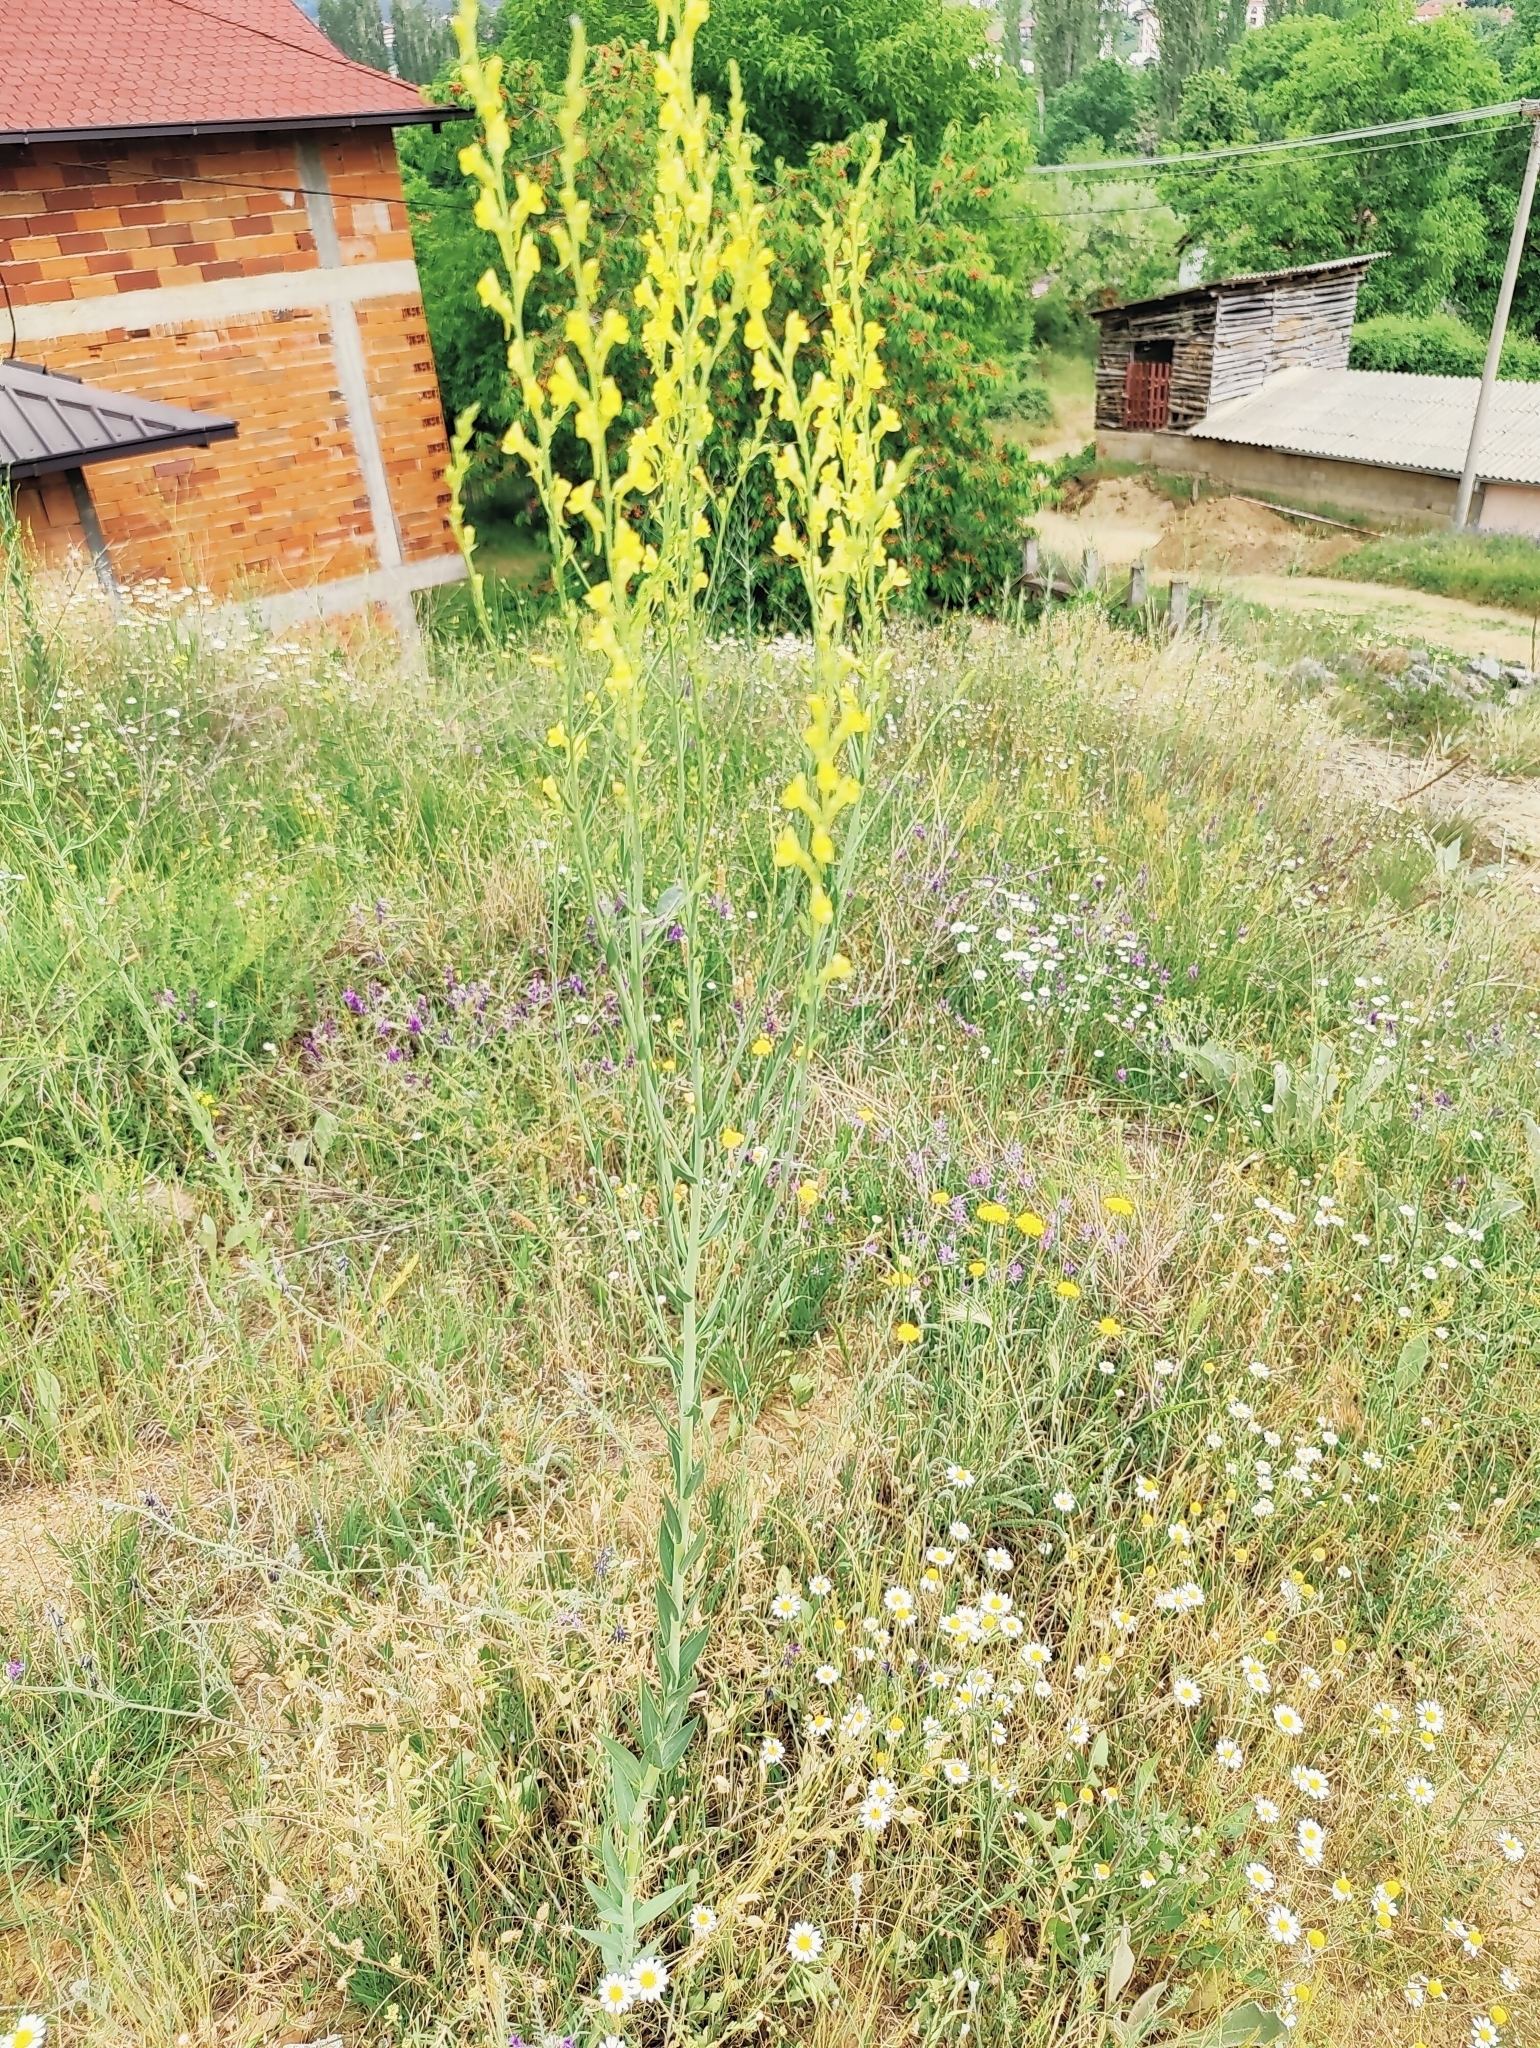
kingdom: Plantae
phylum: Tracheophyta
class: Magnoliopsida
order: Lamiales
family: Plantaginaceae
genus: Linaria
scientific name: Linaria genistifolia
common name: Broomleaf toadflax
